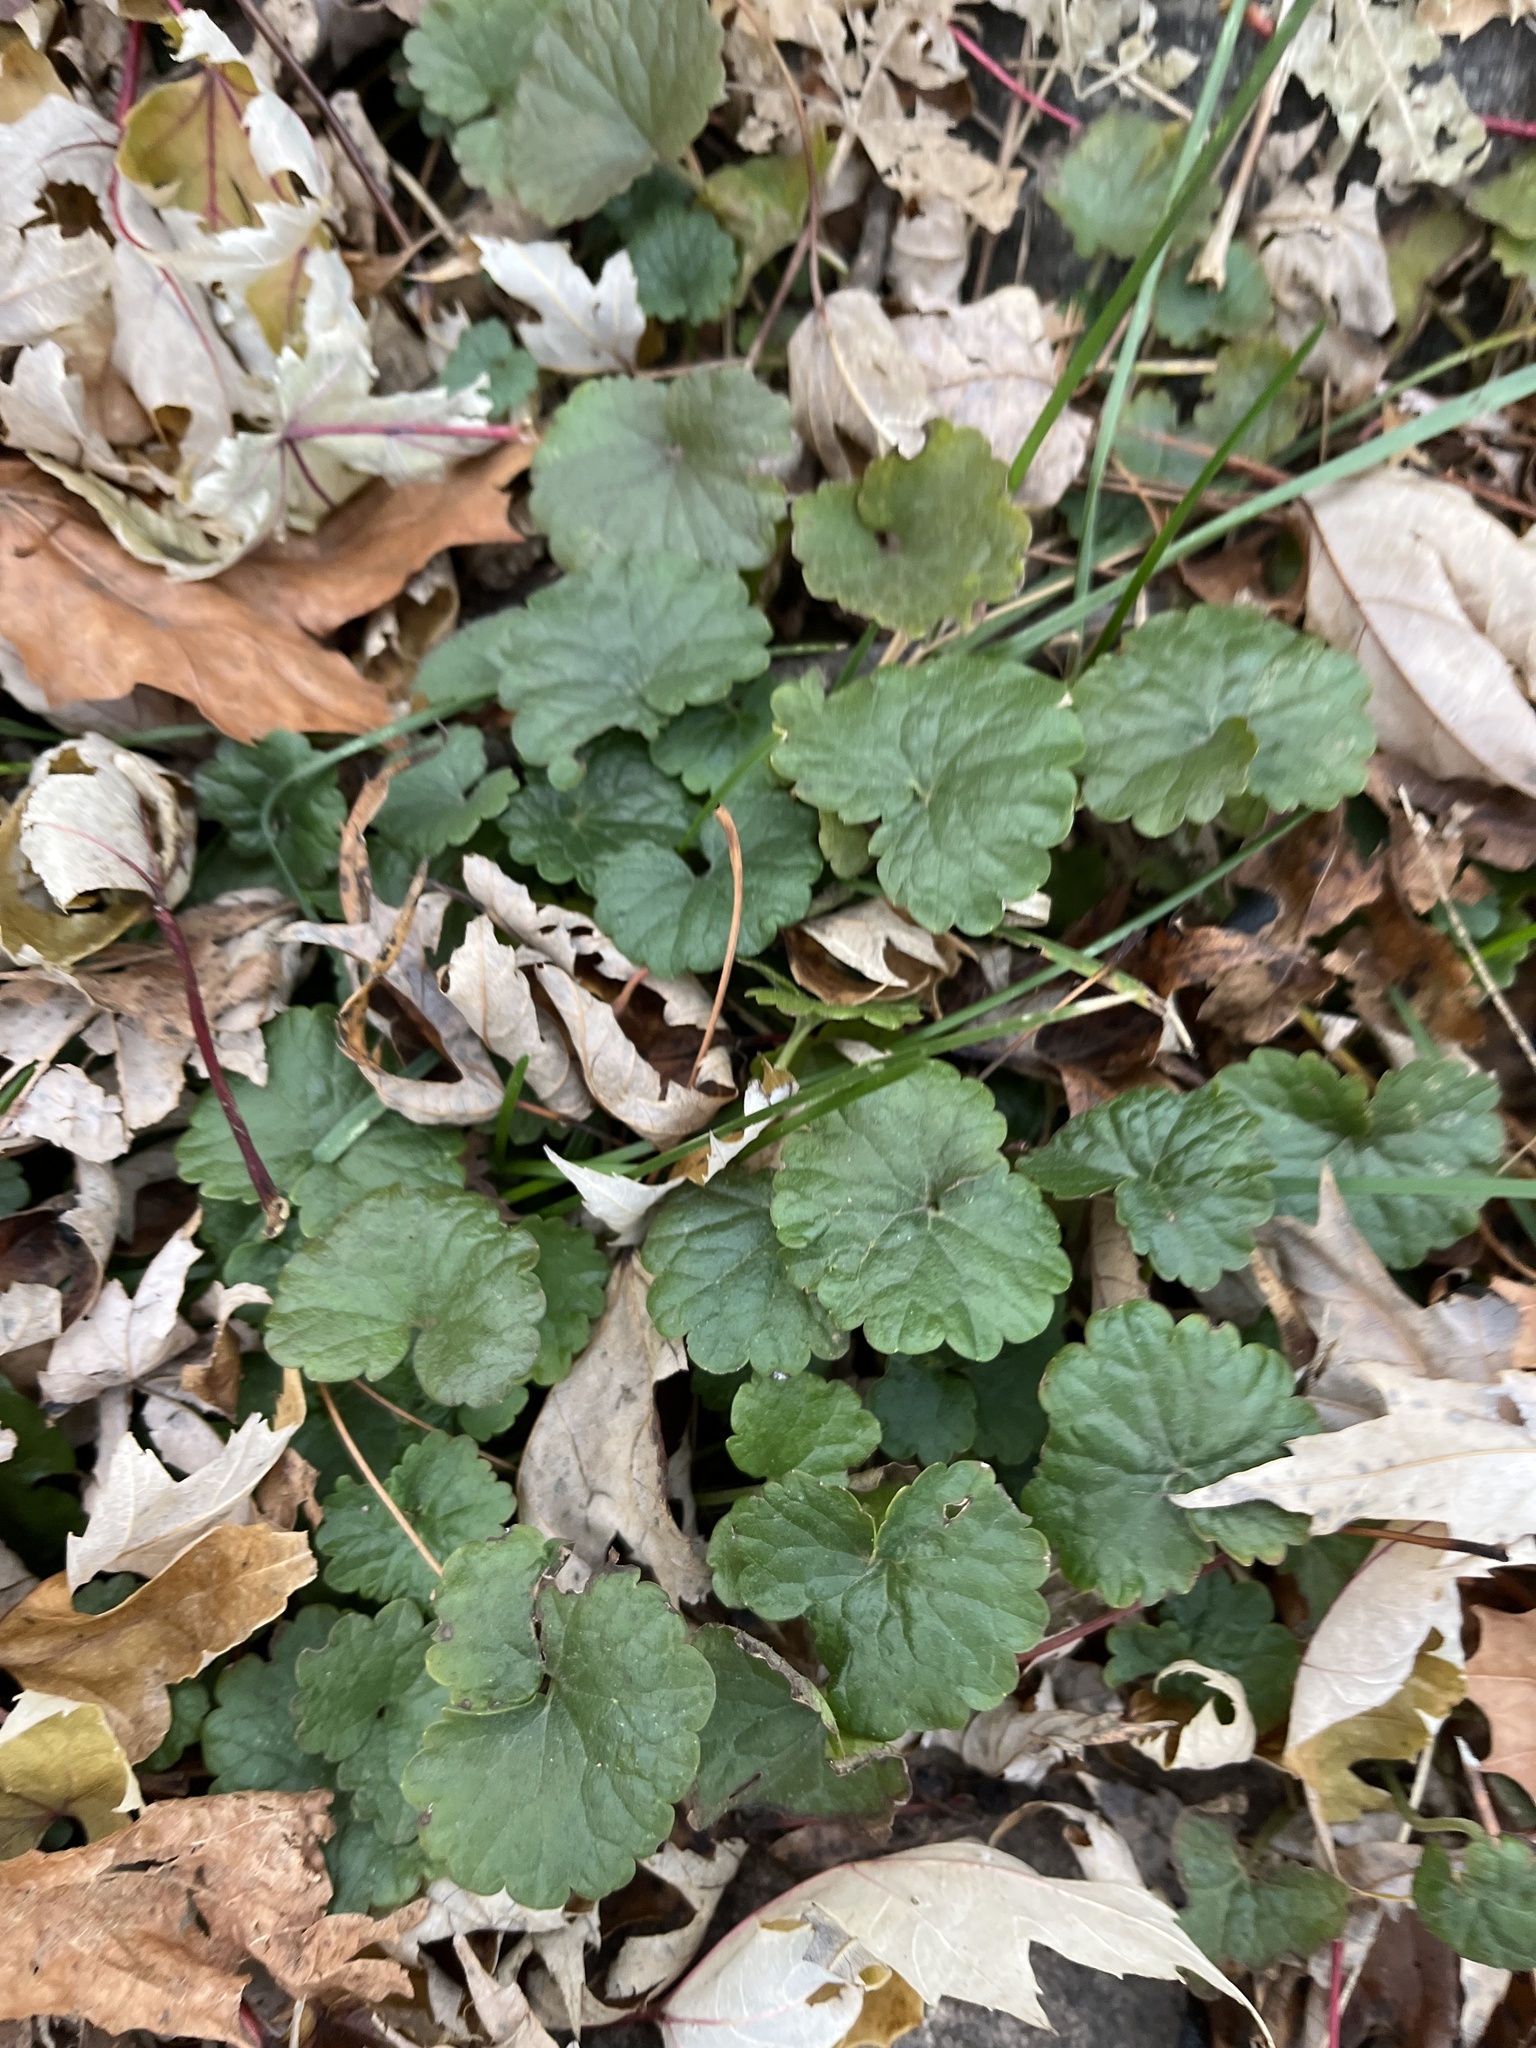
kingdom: Plantae
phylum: Tracheophyta
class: Magnoliopsida
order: Lamiales
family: Lamiaceae
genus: Glechoma
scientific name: Glechoma hederacea
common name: Ground ivy
